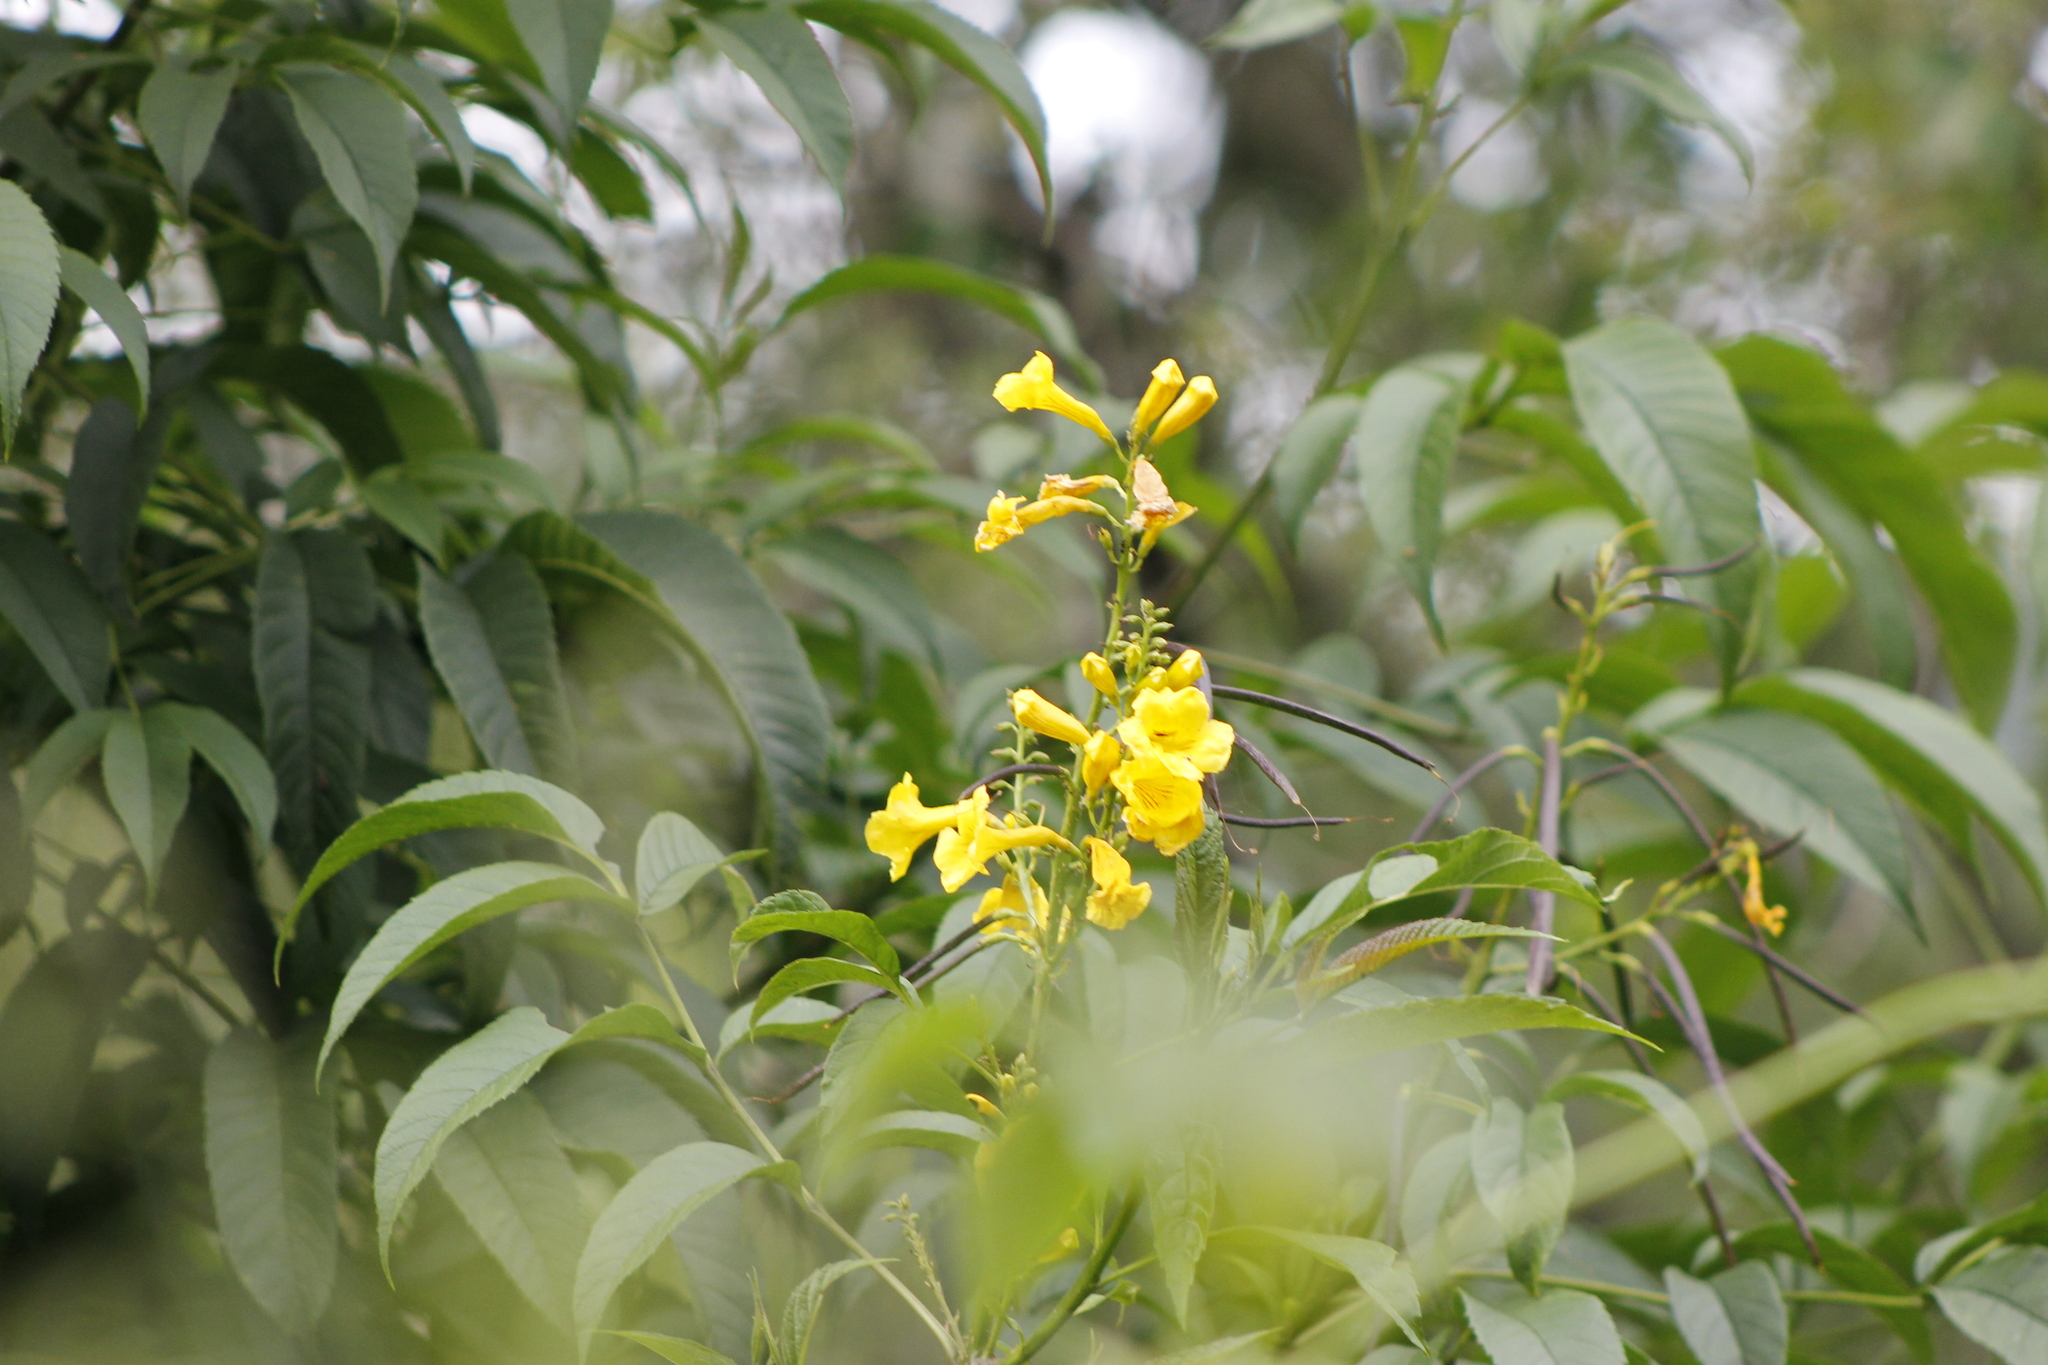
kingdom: Plantae
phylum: Tracheophyta
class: Magnoliopsida
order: Lamiales
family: Bignoniaceae
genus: Tecoma
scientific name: Tecoma stans
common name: Yellow trumpetbush
